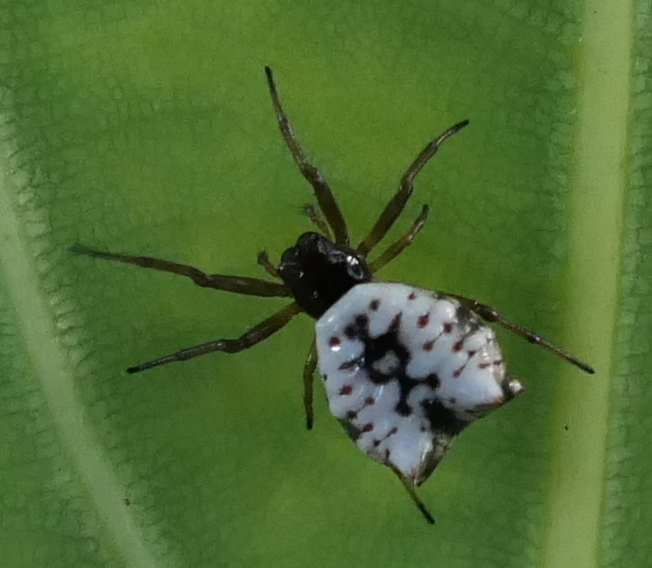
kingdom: Animalia
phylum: Arthropoda
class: Arachnida
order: Araneae
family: Araneidae
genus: Micrathena
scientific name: Micrathena patruelis
